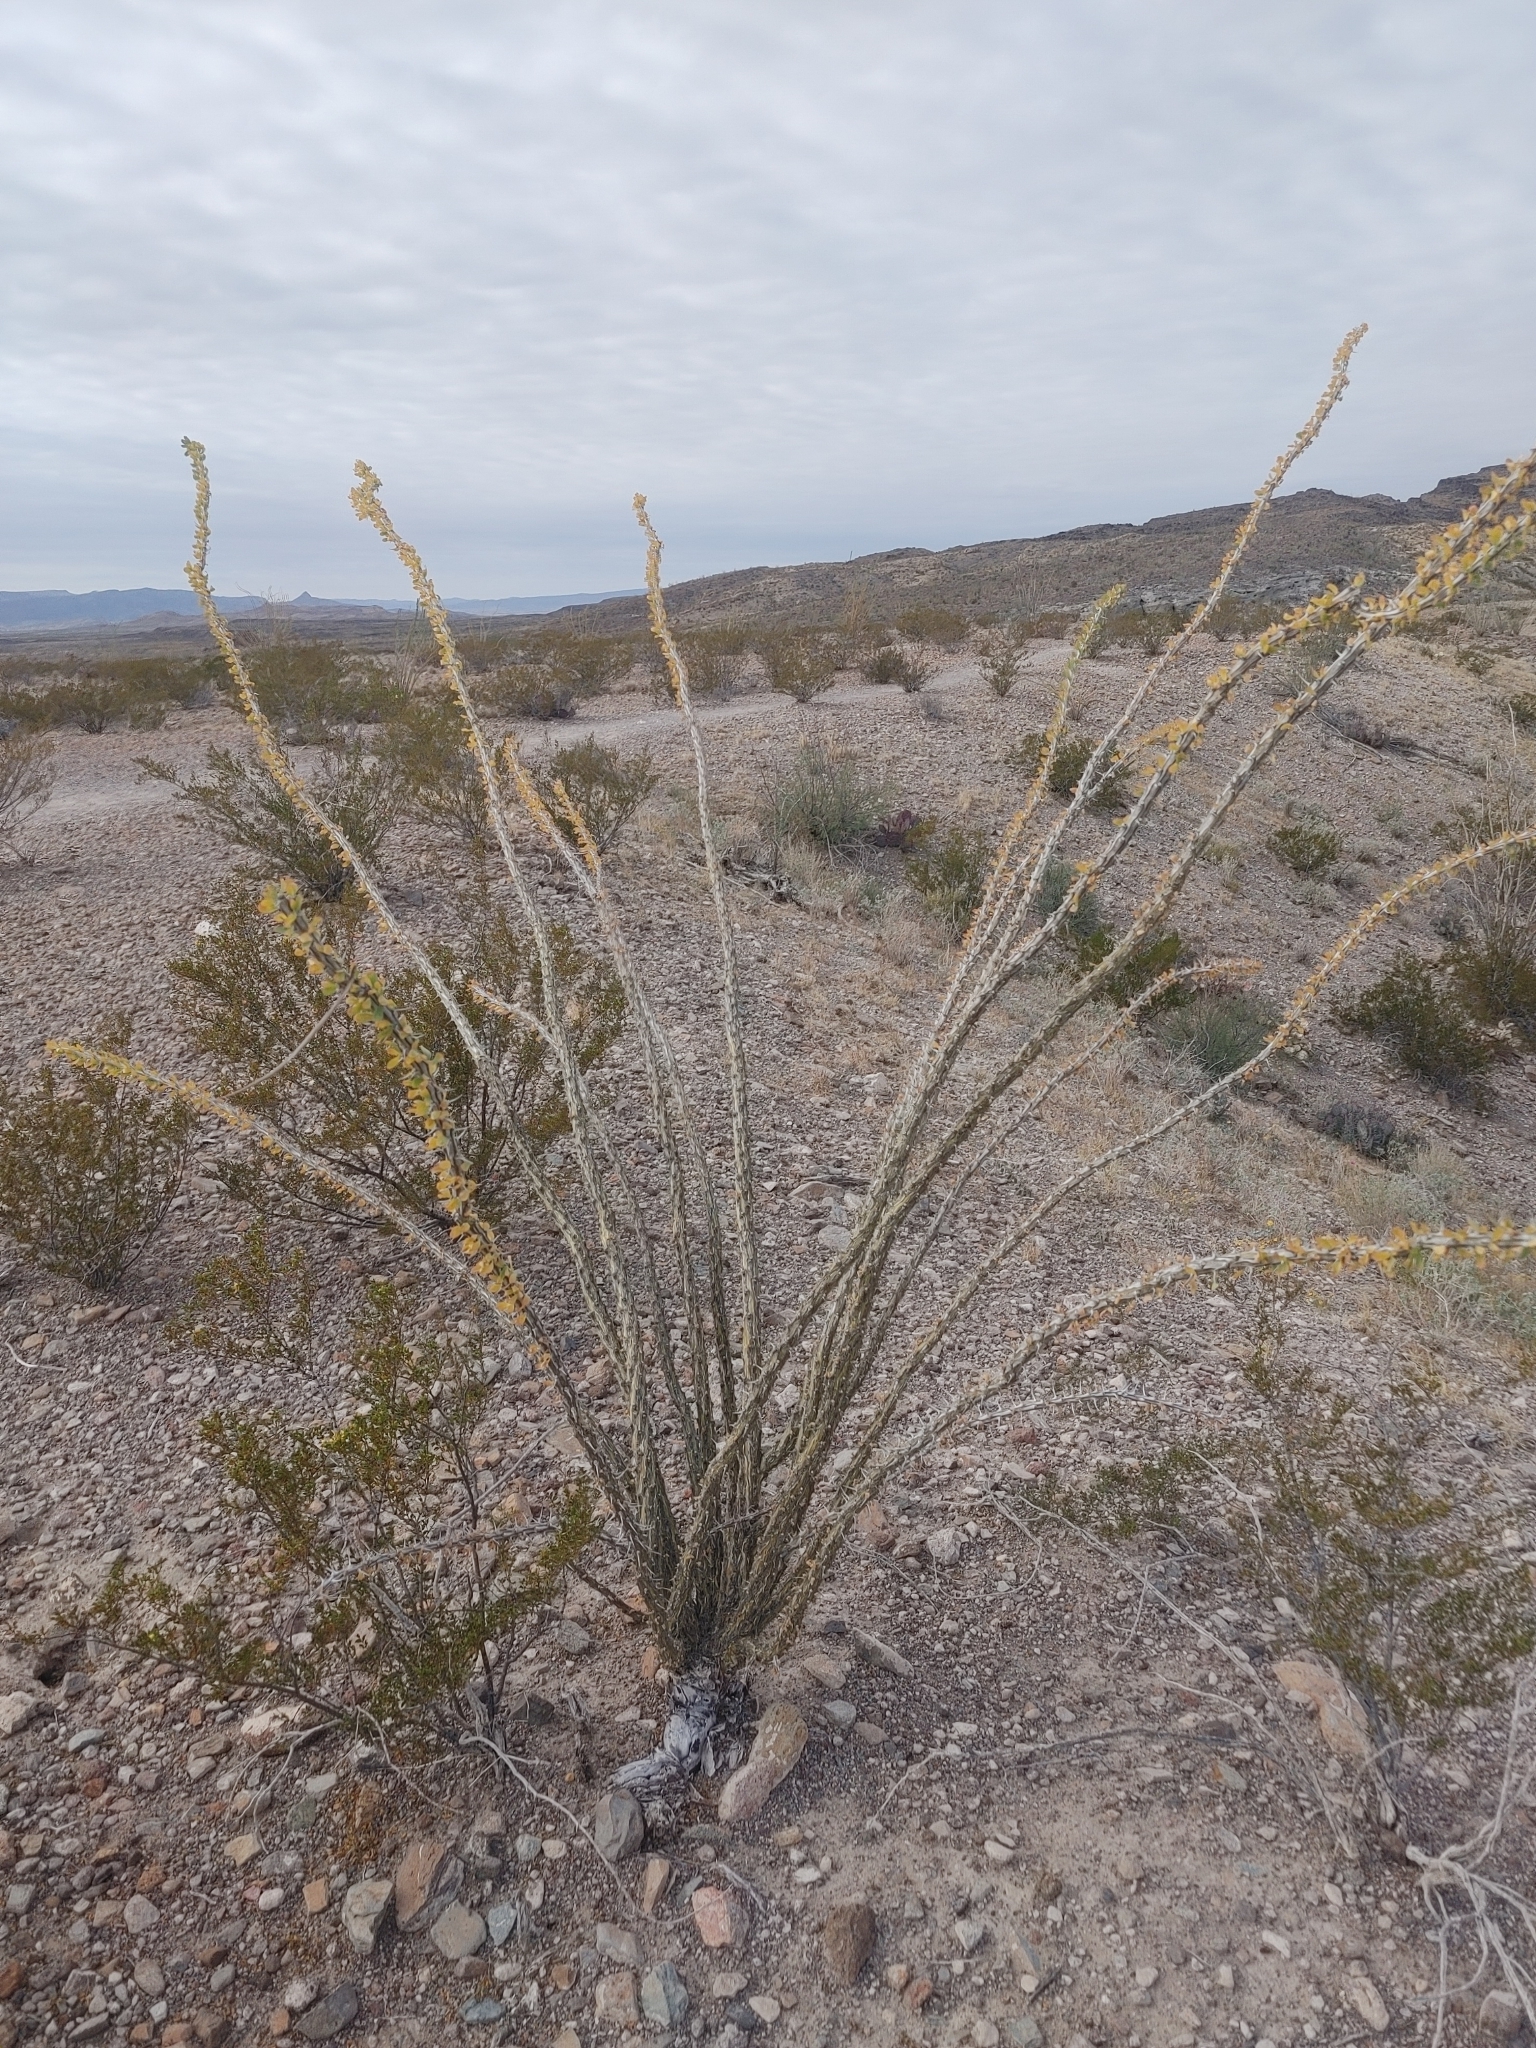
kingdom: Plantae
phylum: Tracheophyta
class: Magnoliopsida
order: Ericales
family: Fouquieriaceae
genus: Fouquieria
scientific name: Fouquieria splendens
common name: Vine-cactus
